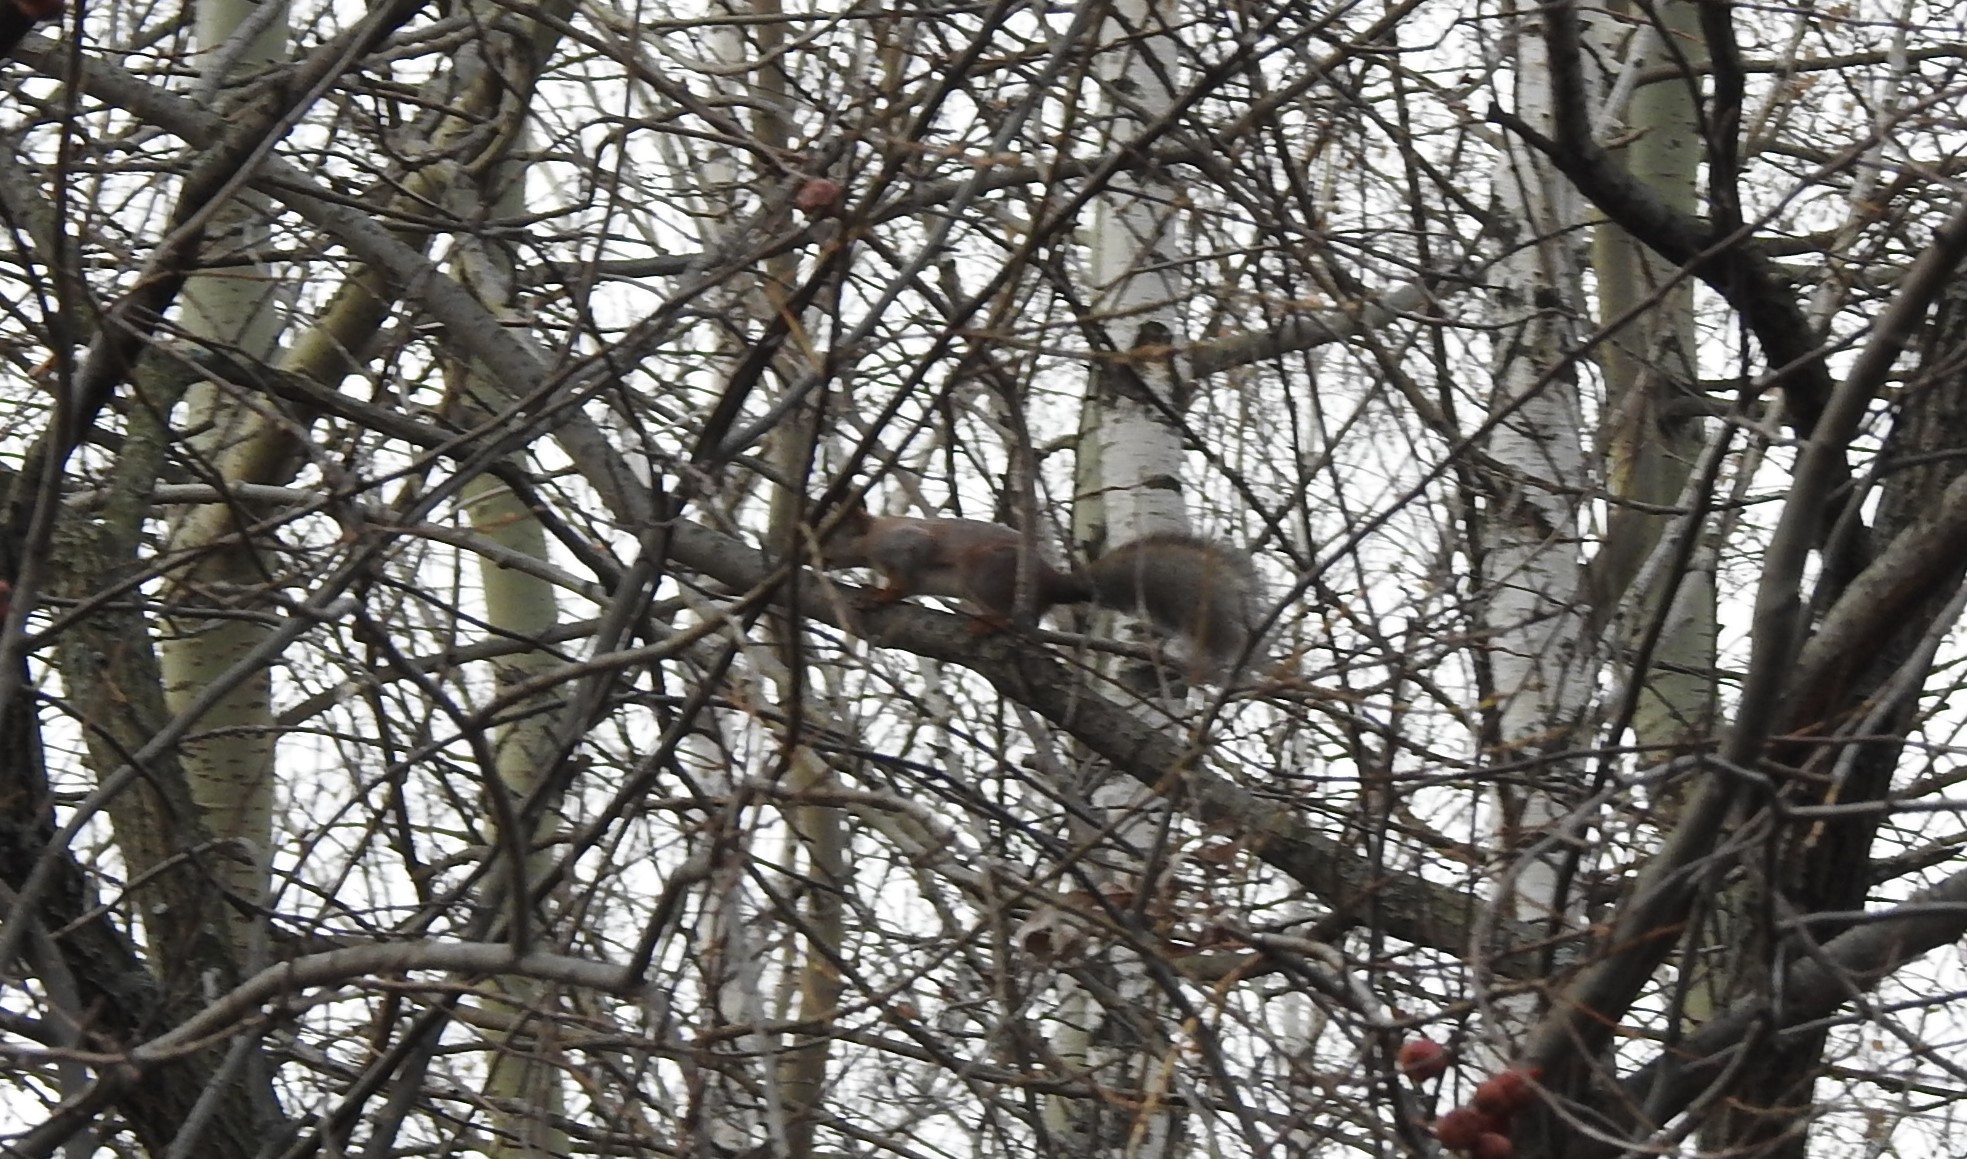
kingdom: Animalia
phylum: Chordata
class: Mammalia
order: Rodentia
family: Sciuridae
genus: Sciurus
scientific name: Sciurus vulgaris
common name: Eurasian red squirrel
